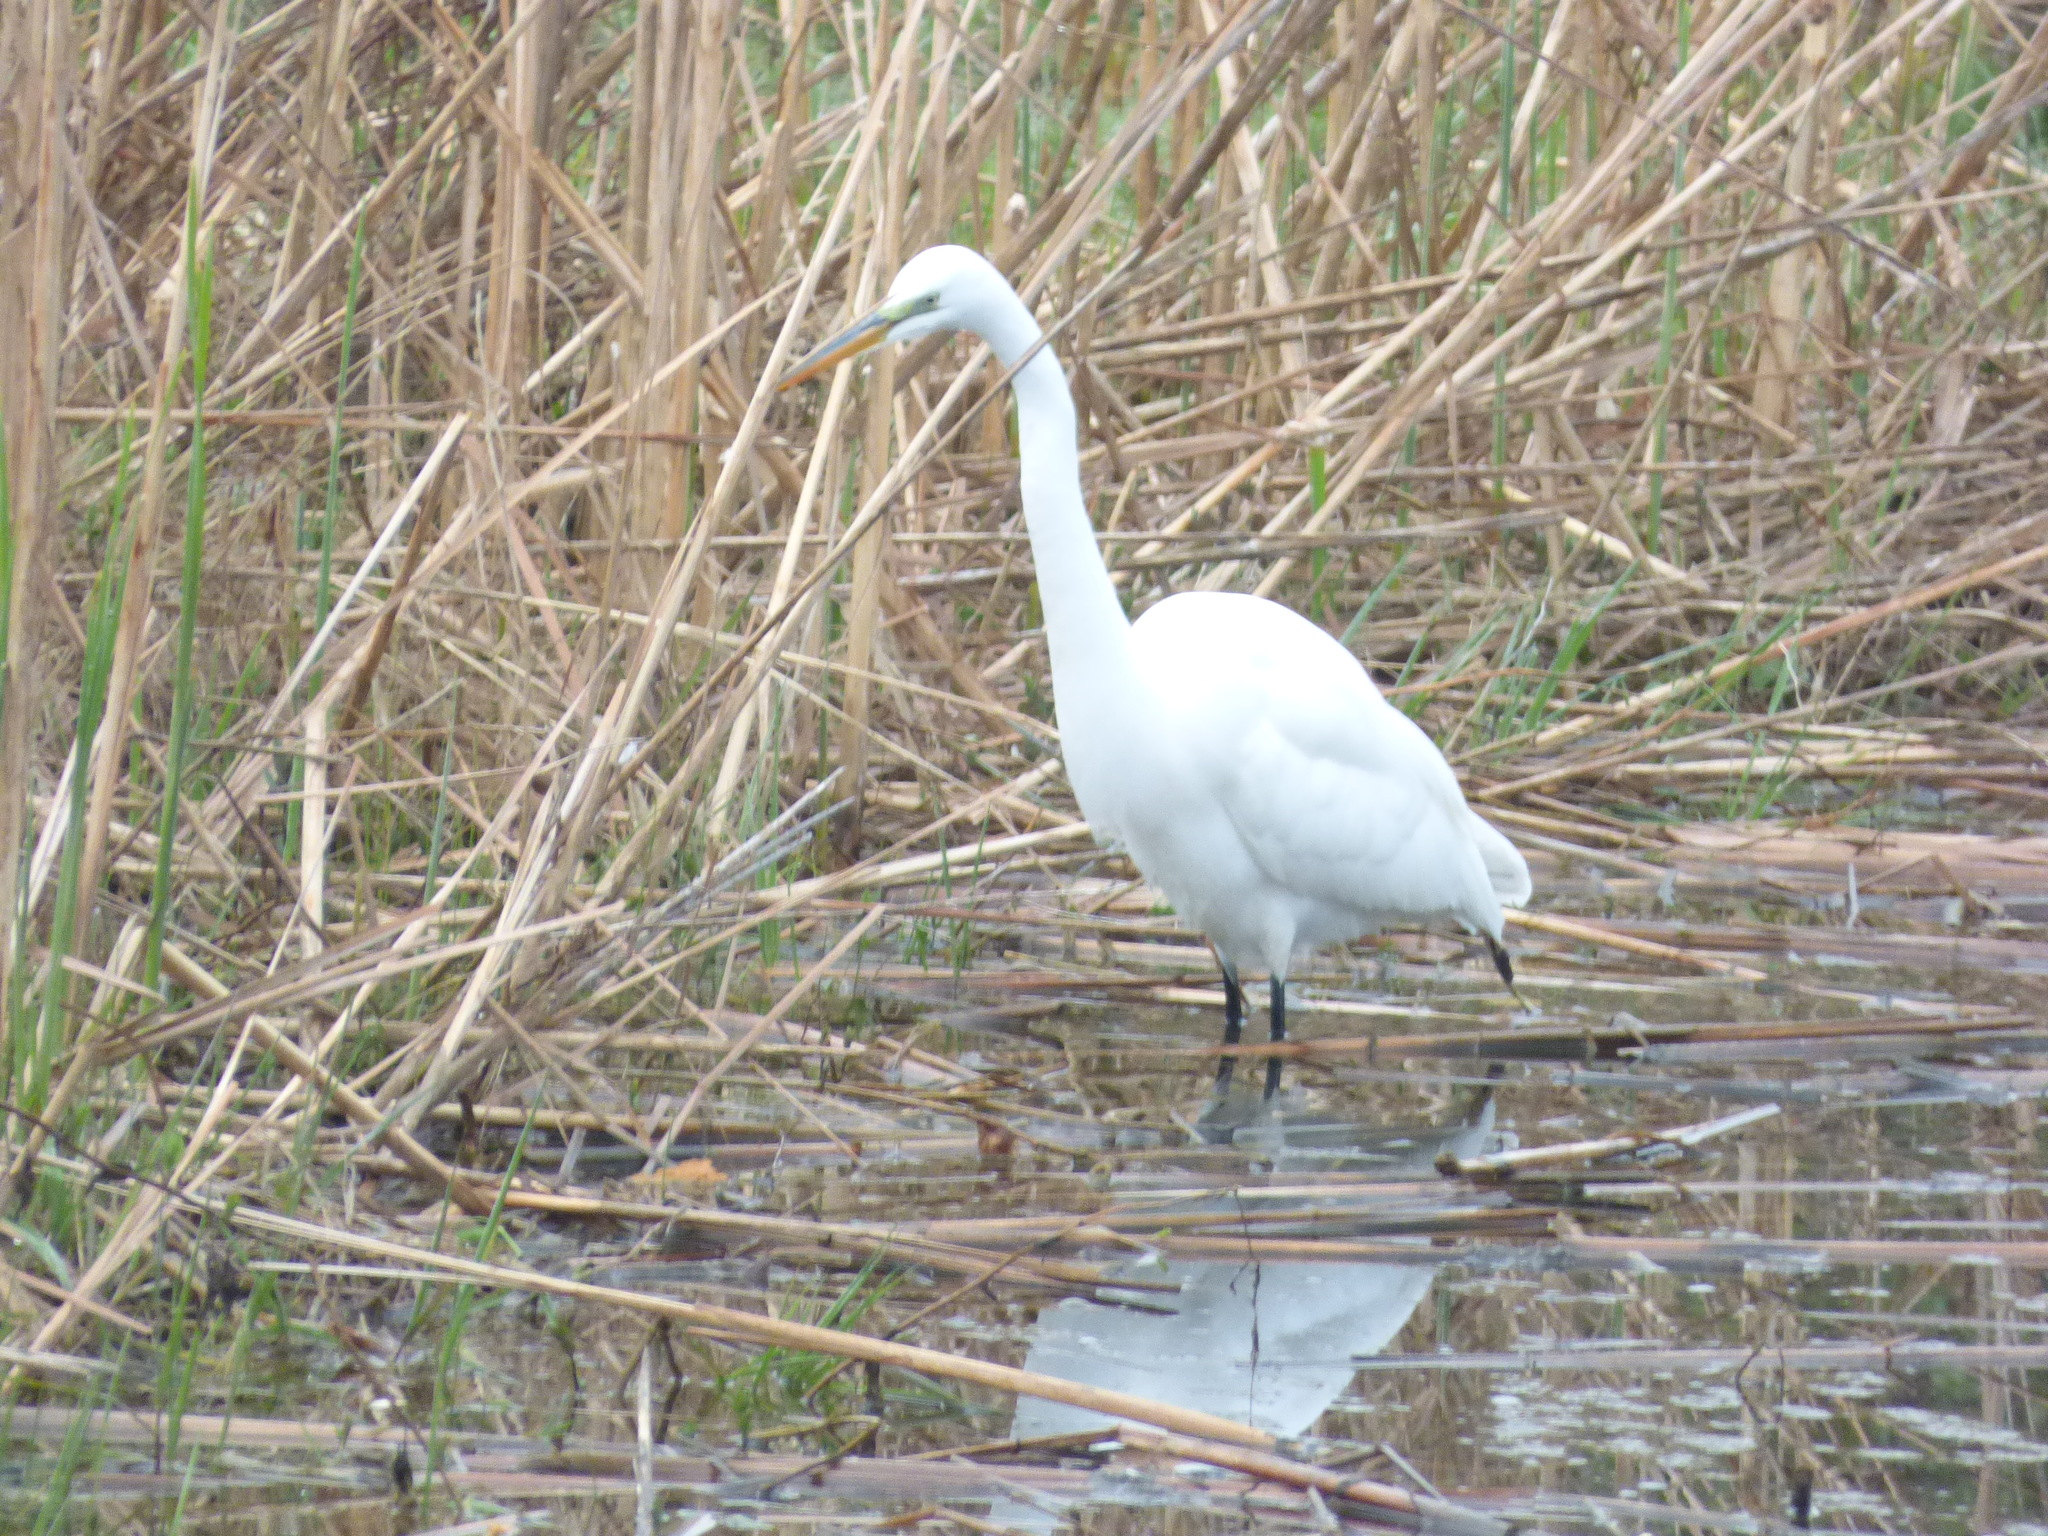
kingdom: Animalia
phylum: Chordata
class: Aves
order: Pelecaniformes
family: Ardeidae
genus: Ardea
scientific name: Ardea alba
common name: Great egret
